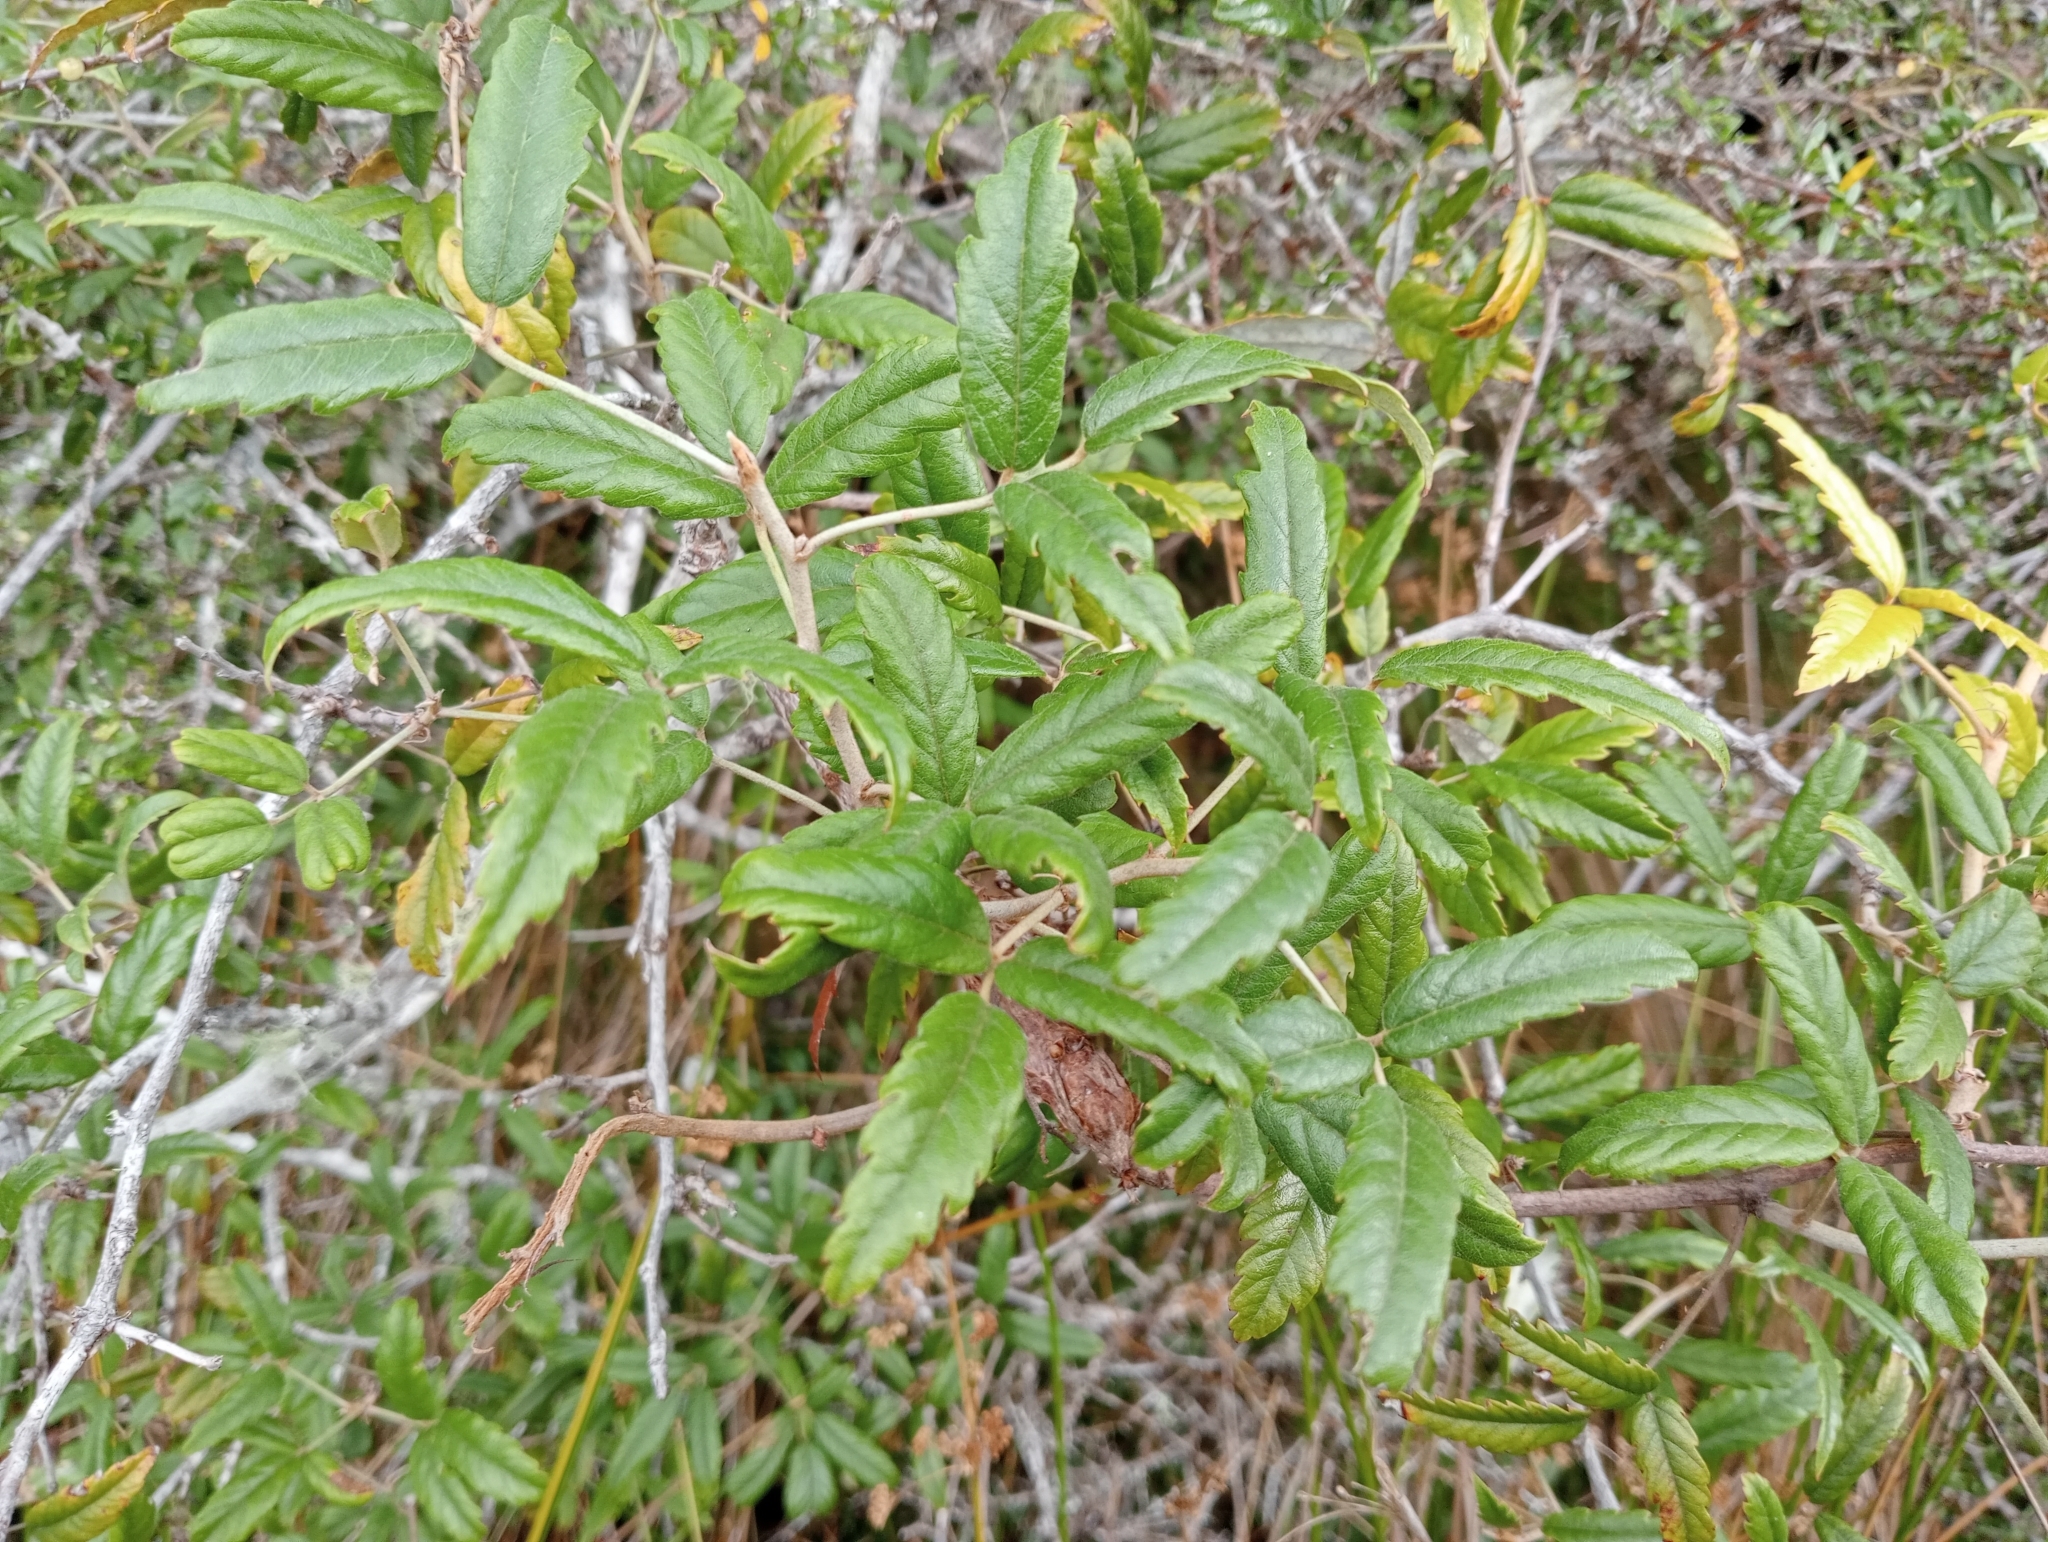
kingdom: Plantae
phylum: Tracheophyta
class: Magnoliopsida
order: Rosales
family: Rosaceae
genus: Rubus
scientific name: Rubus schmidelioides
